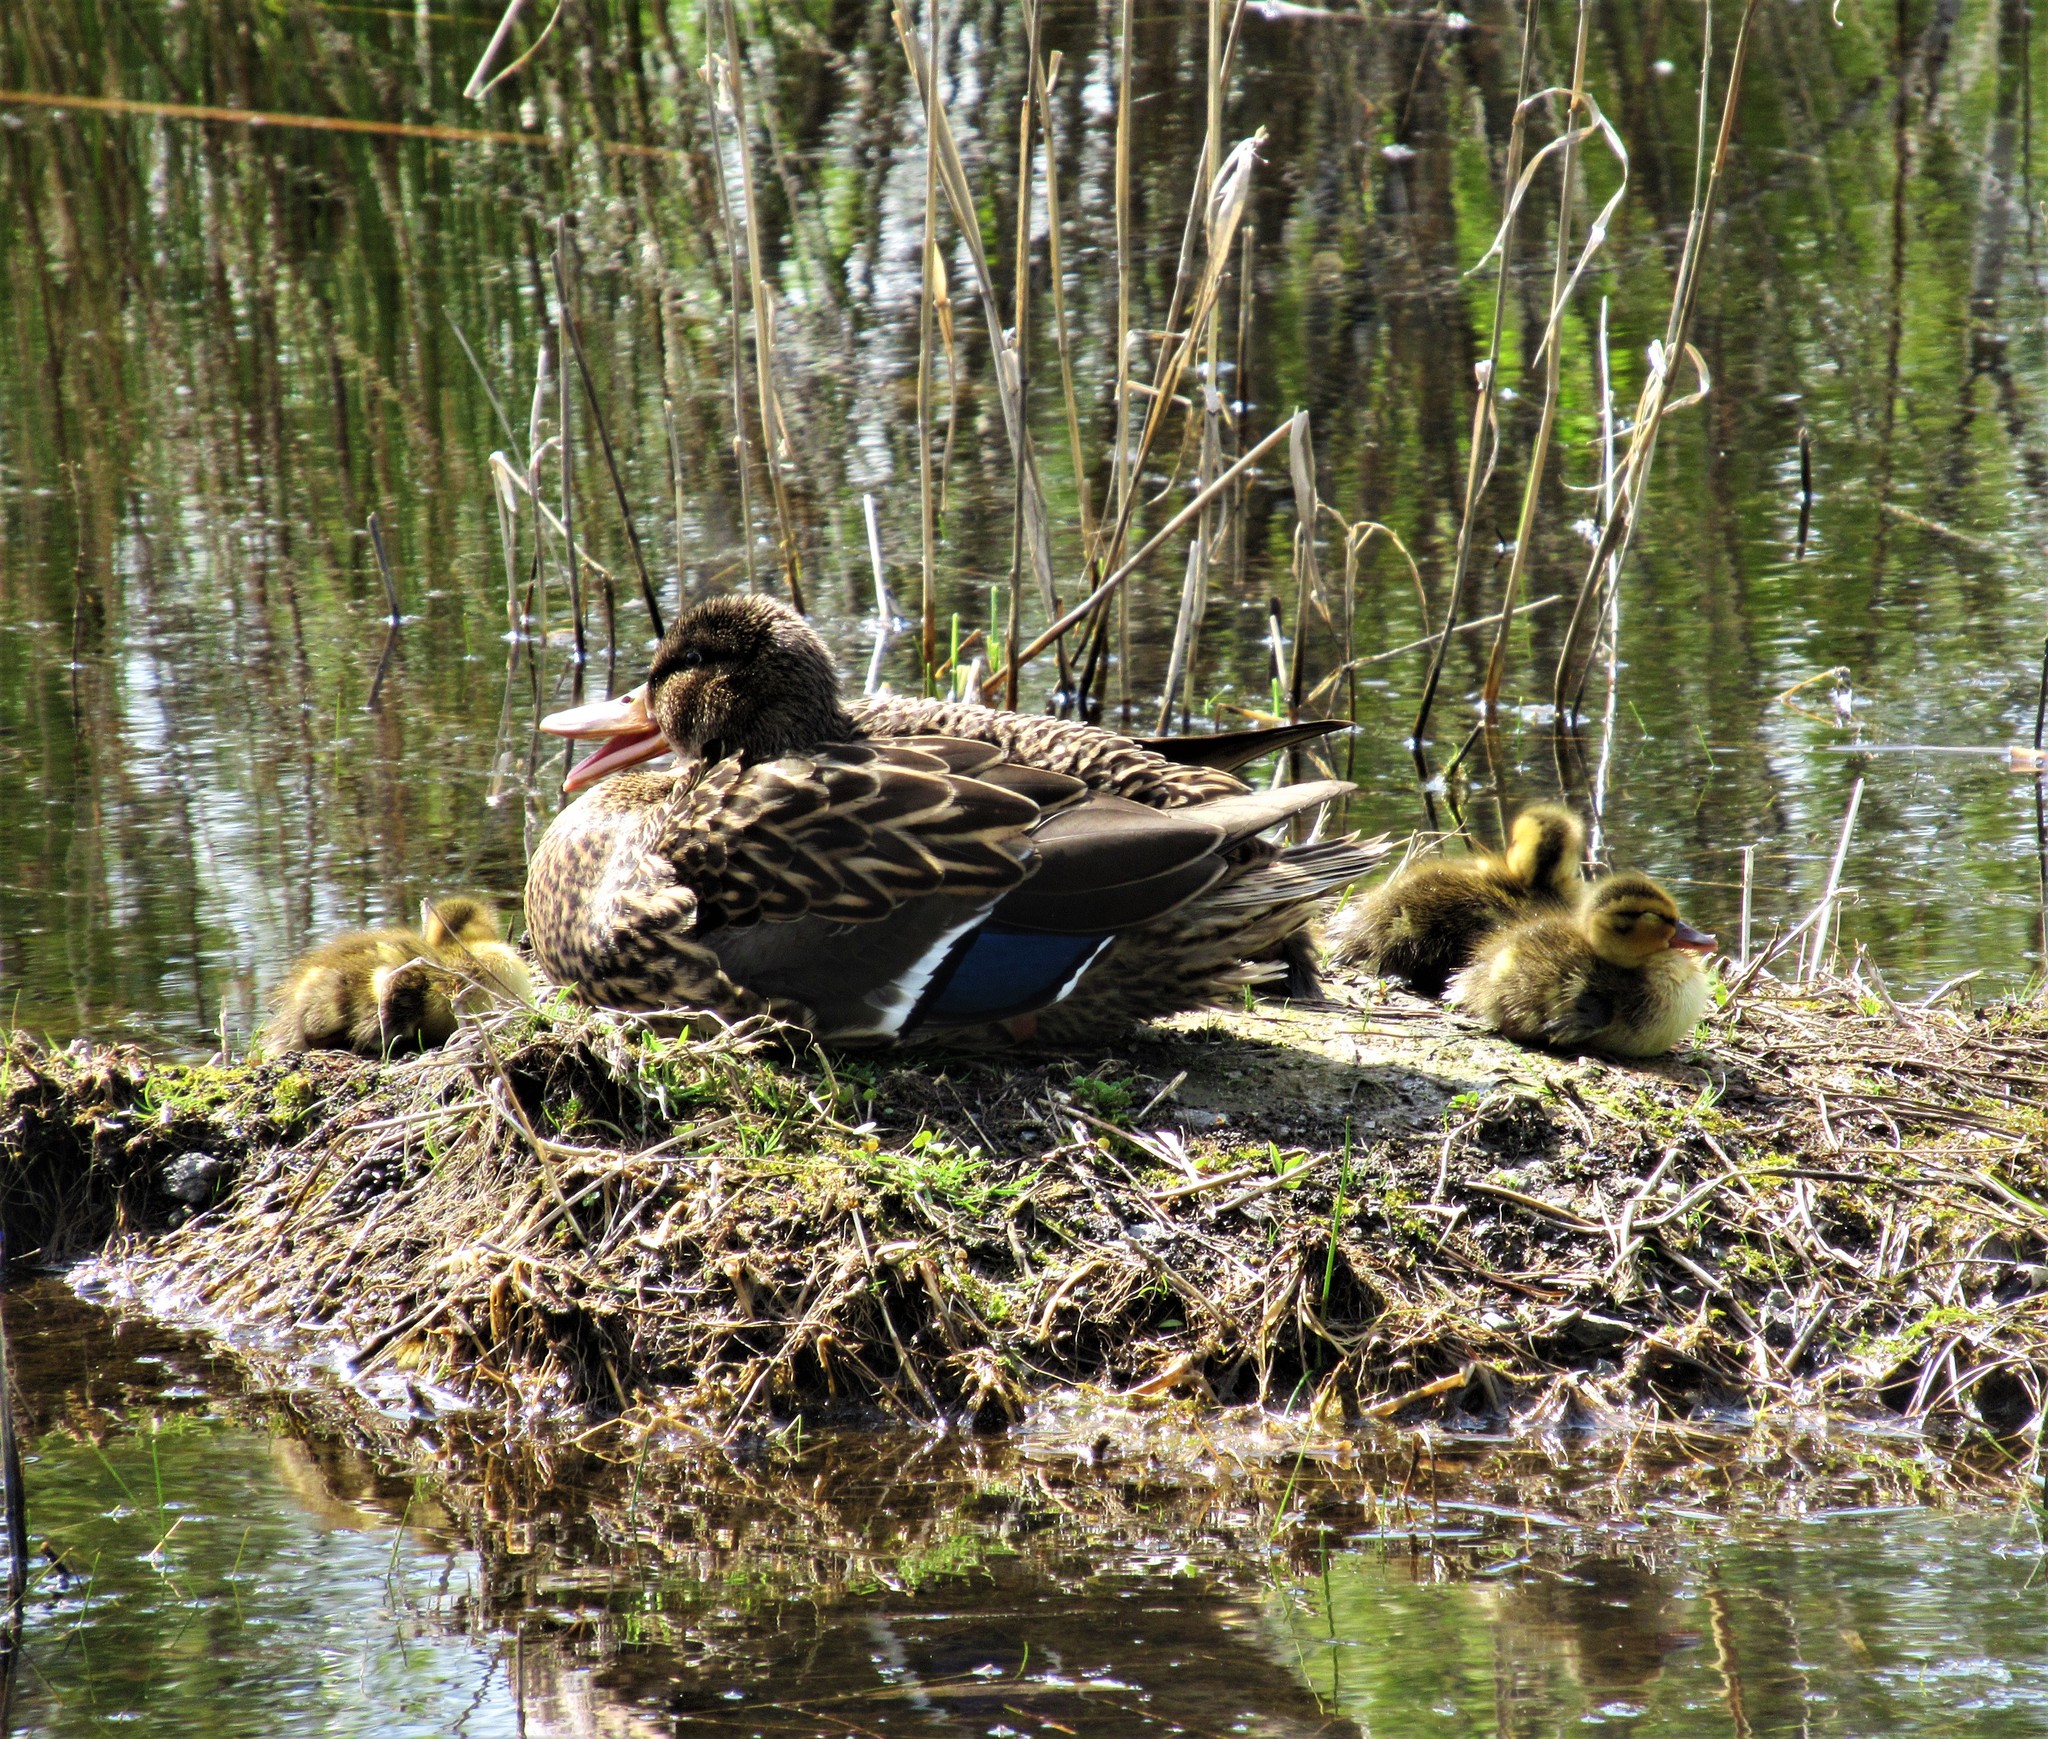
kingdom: Animalia
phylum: Chordata
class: Aves
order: Anseriformes
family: Anatidae
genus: Anas
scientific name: Anas platyrhynchos
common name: Mallard
